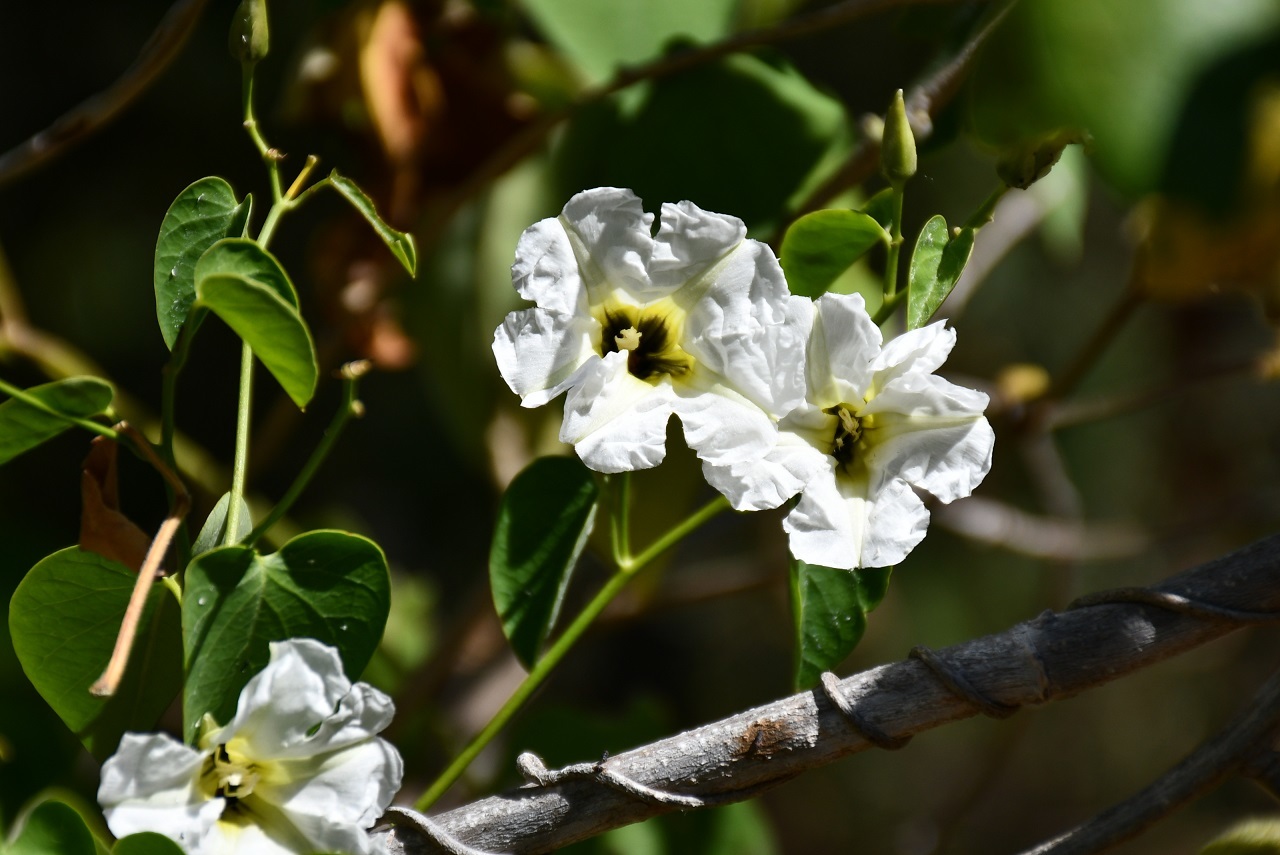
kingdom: Plantae
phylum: Tracheophyta
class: Magnoliopsida
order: Solanales
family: Convolvulaceae
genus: Ipomoea
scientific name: Ipomoea corymbosa
